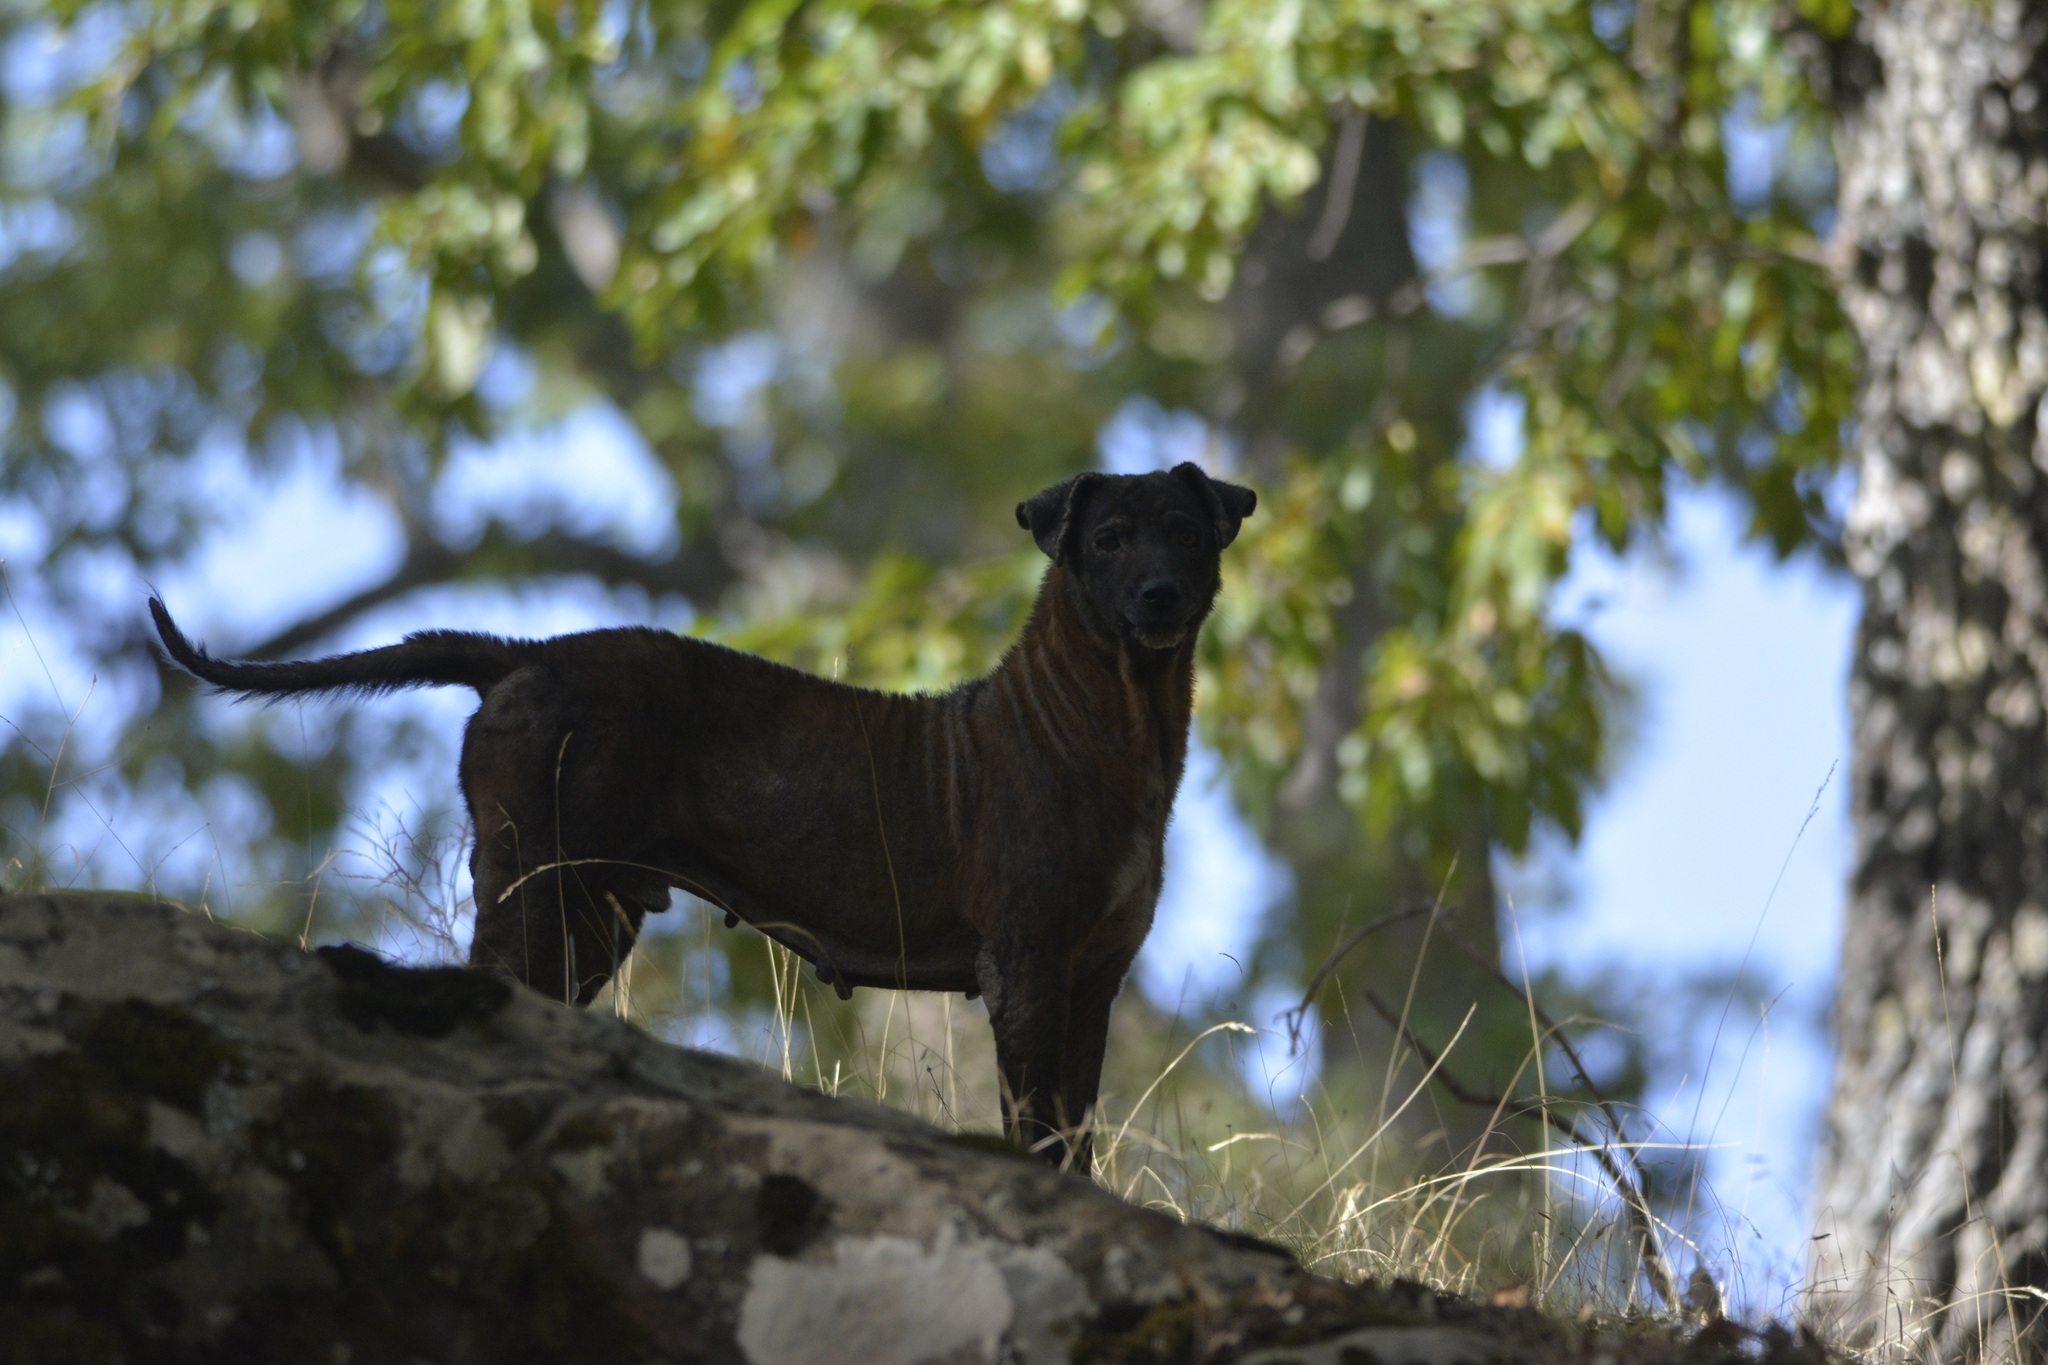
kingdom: Animalia
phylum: Chordata
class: Mammalia
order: Carnivora
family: Canidae
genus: Canis
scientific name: Canis lupus
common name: Gray wolf
